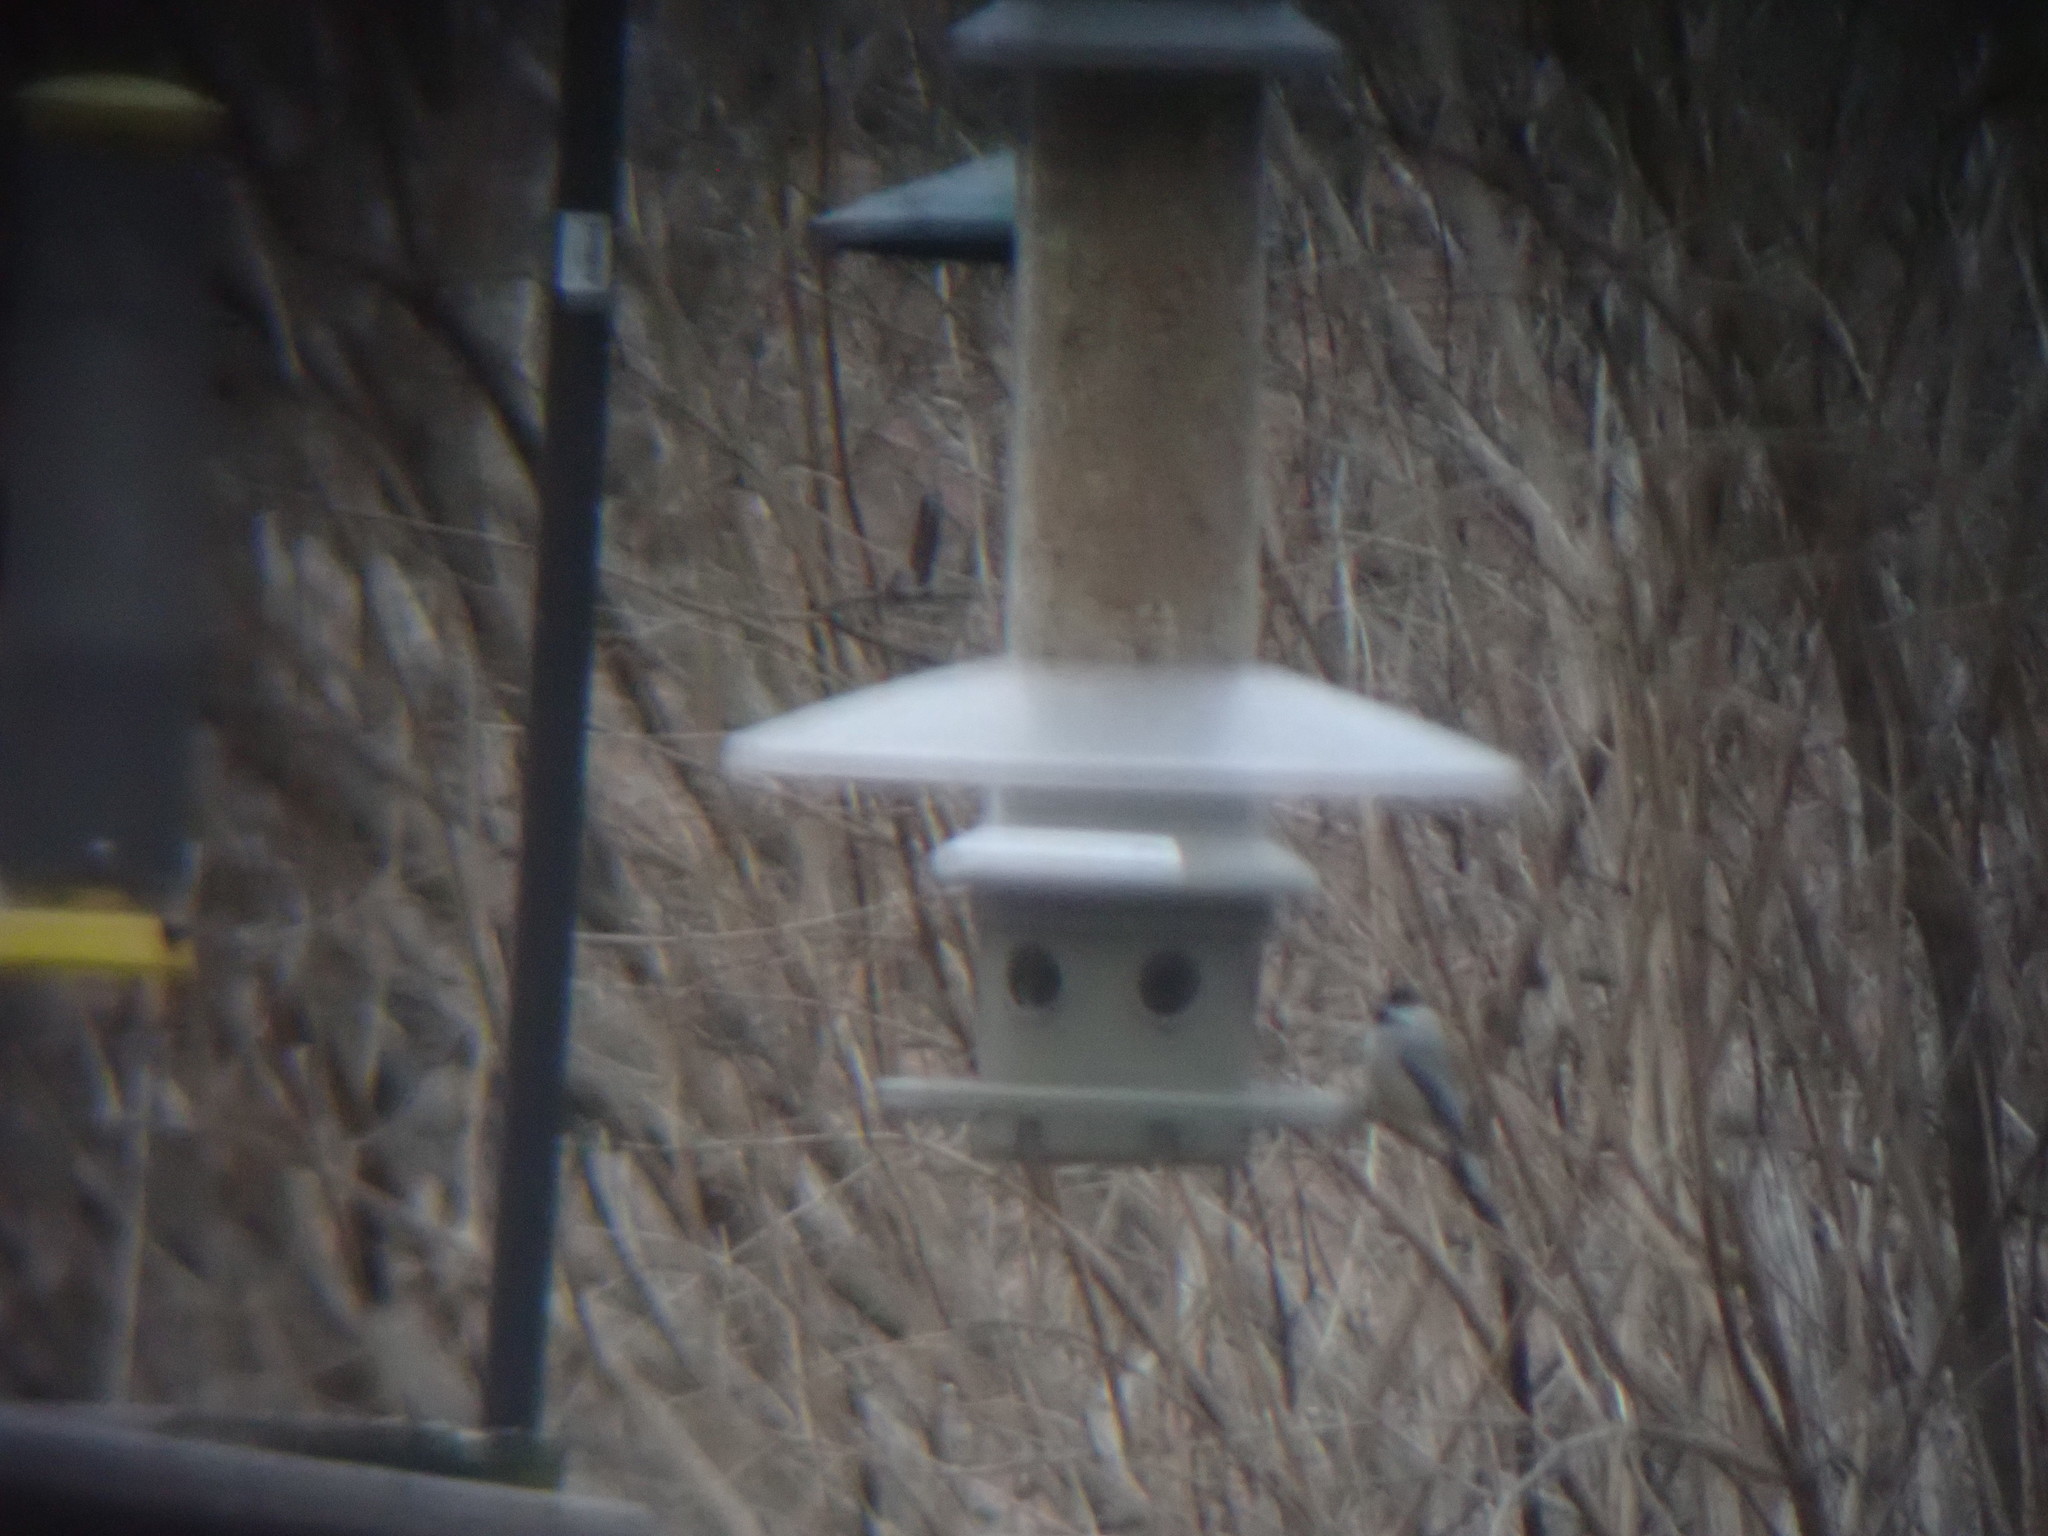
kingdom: Animalia
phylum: Chordata
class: Aves
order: Passeriformes
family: Paridae
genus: Poecile
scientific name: Poecile carolinensis
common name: Carolina chickadee
